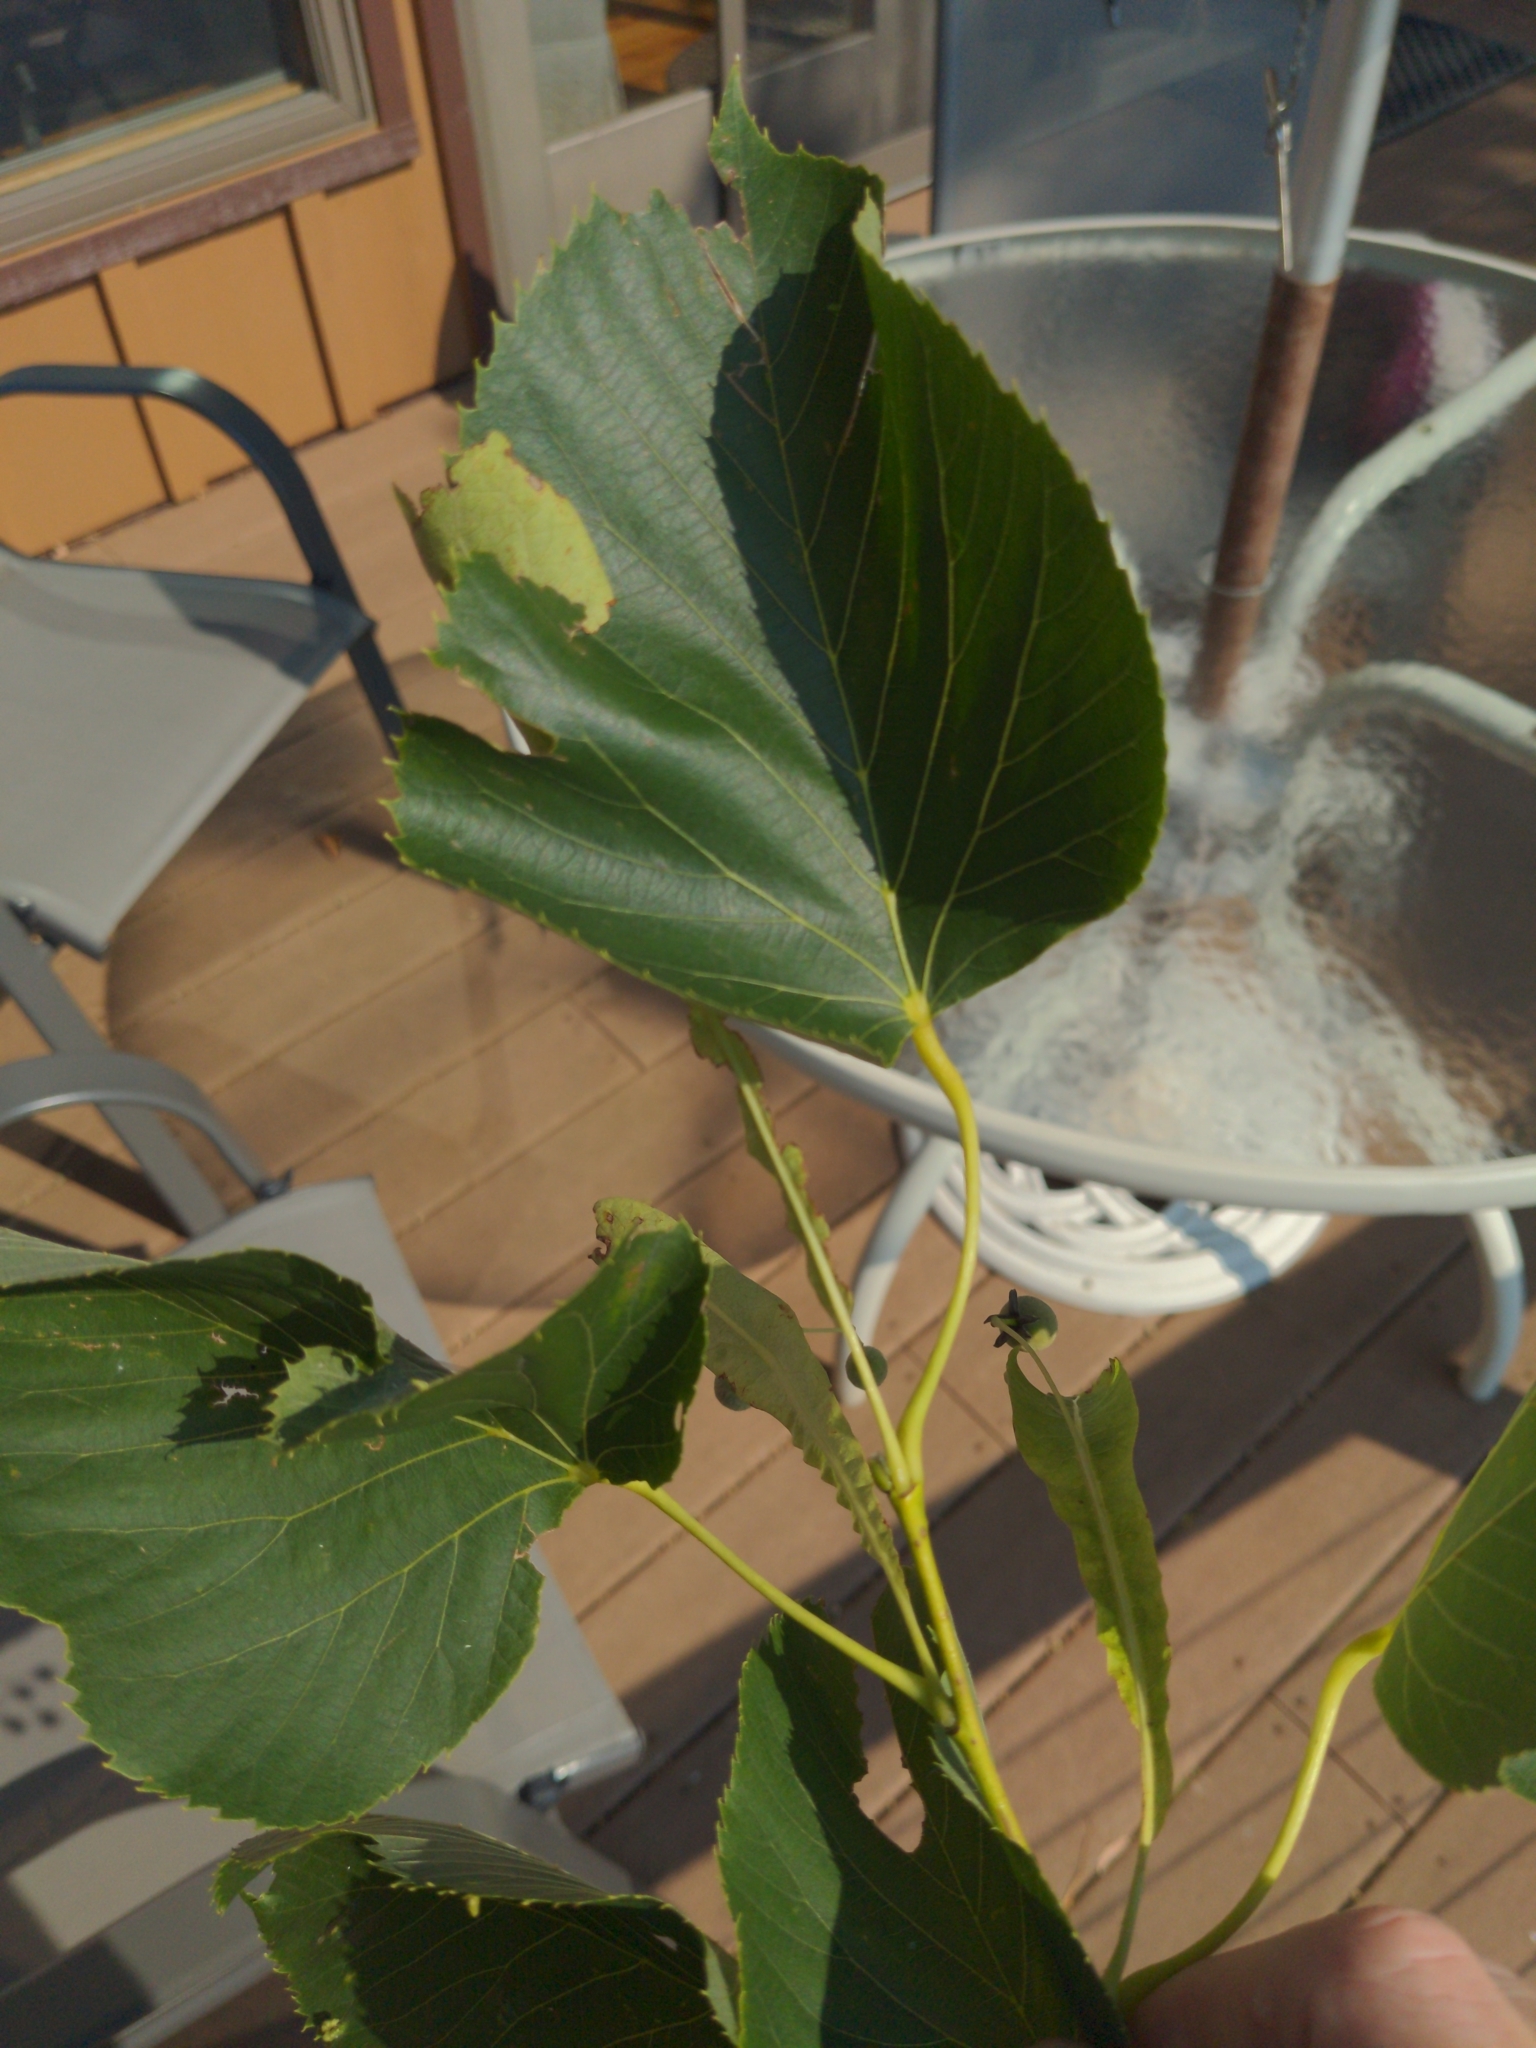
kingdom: Plantae
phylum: Tracheophyta
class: Magnoliopsida
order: Malvales
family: Malvaceae
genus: Tilia
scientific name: Tilia cordata
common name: Small-leaved lime
